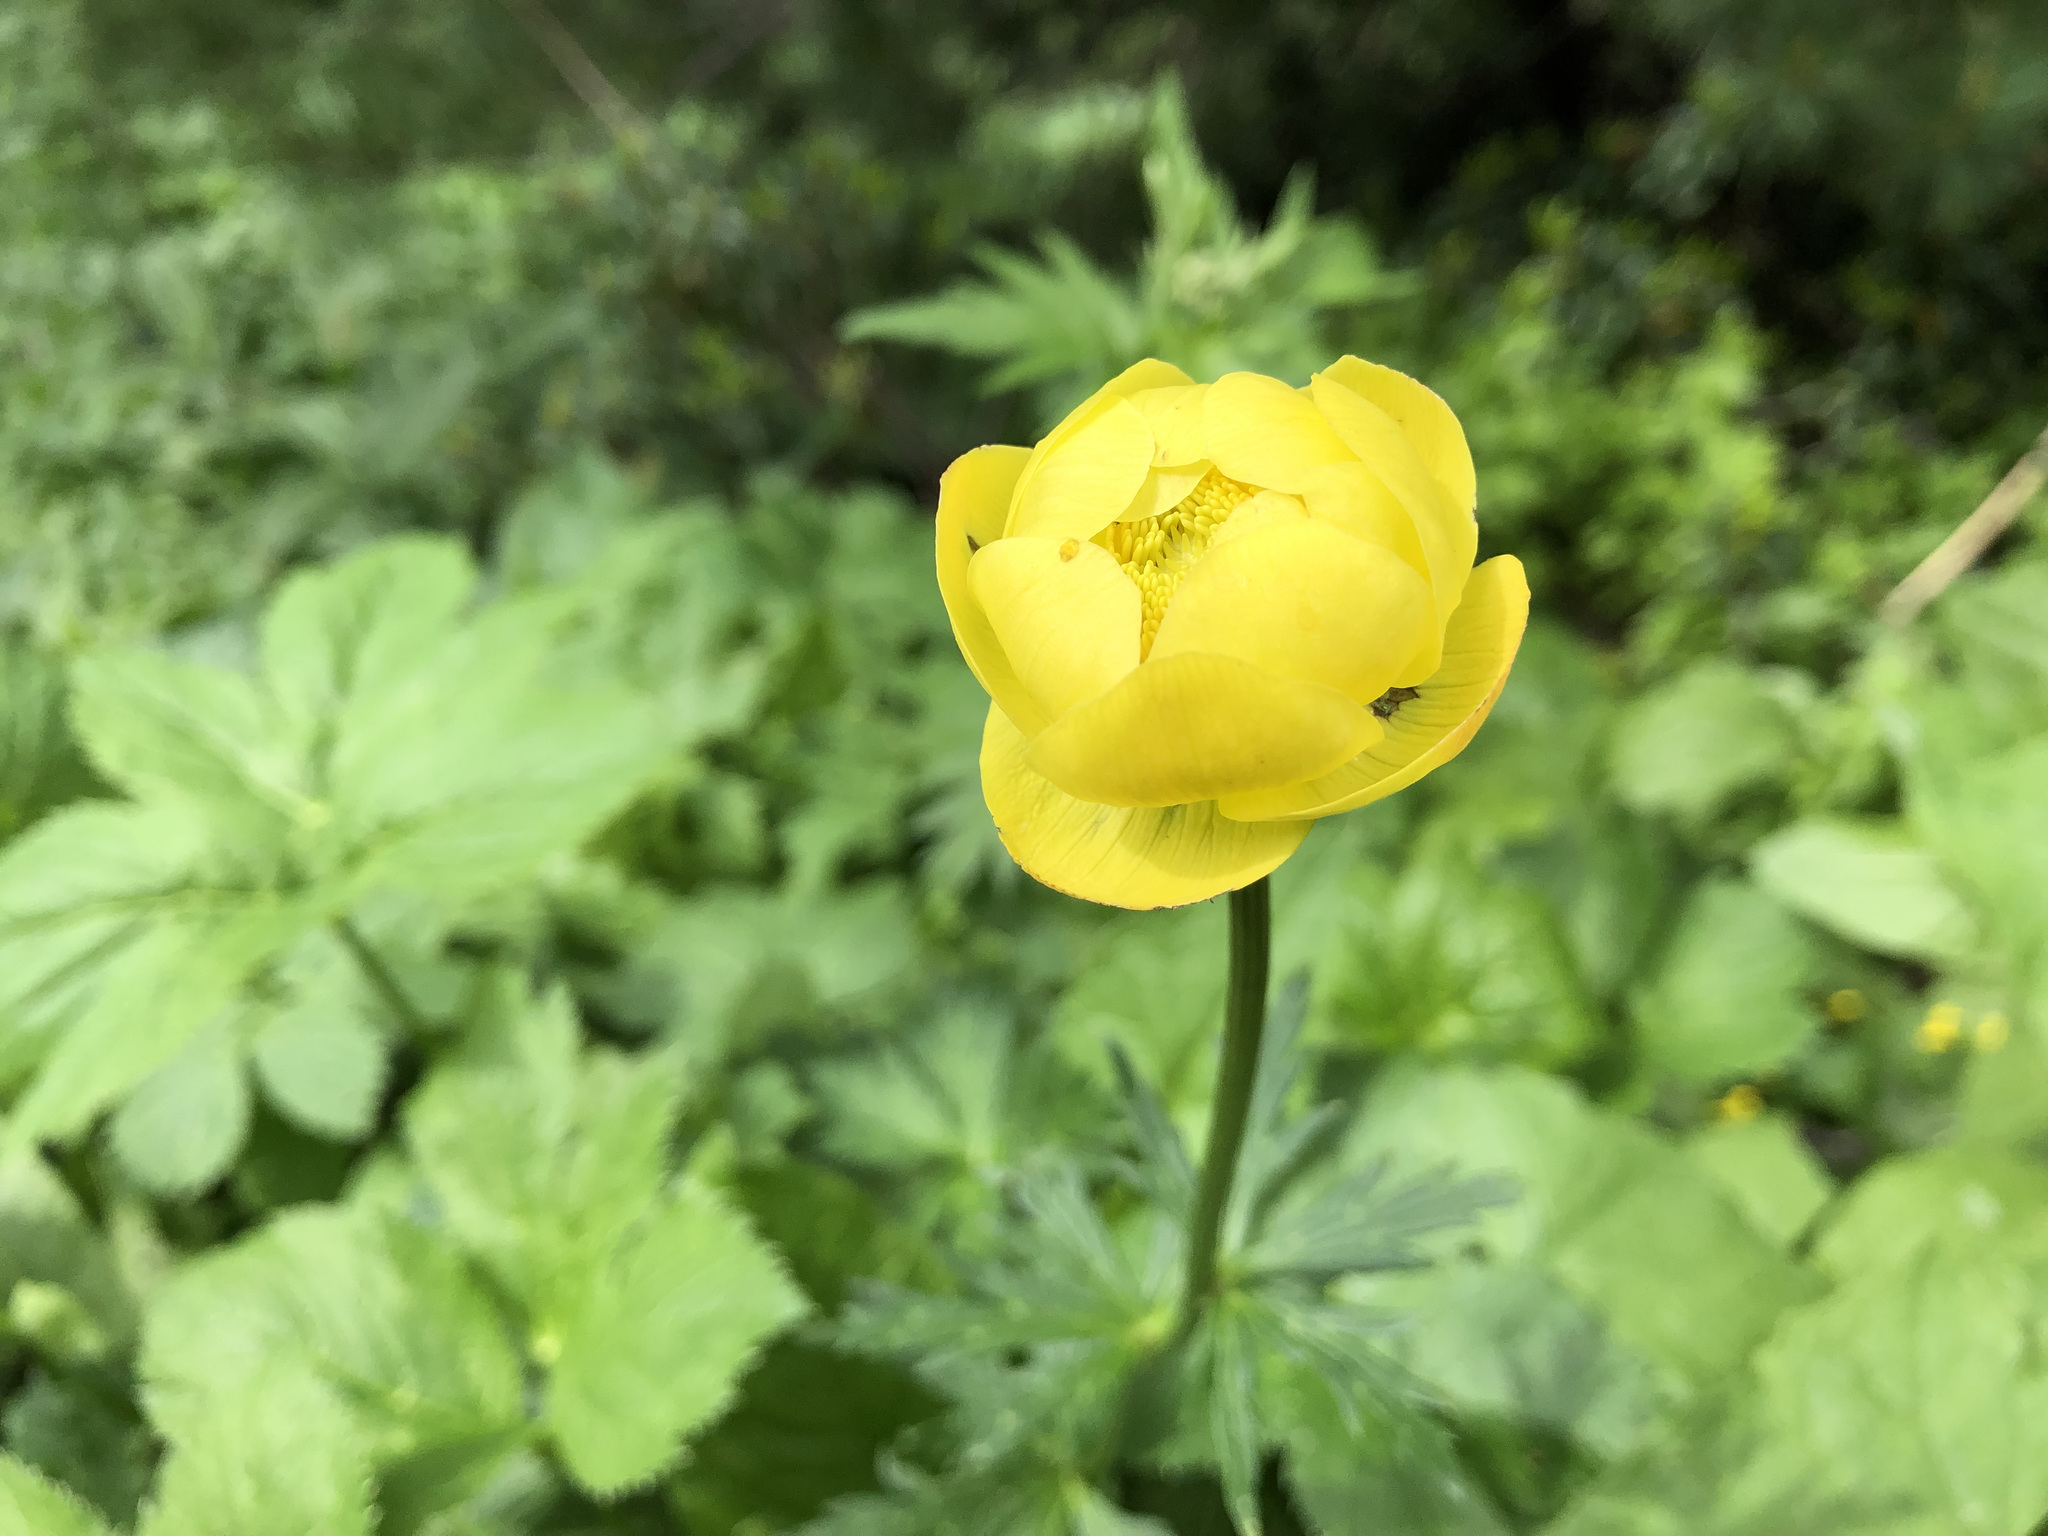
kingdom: Plantae
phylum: Tracheophyta
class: Magnoliopsida
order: Ranunculales
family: Ranunculaceae
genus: Trollius
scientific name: Trollius europaeus
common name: European globeflower
